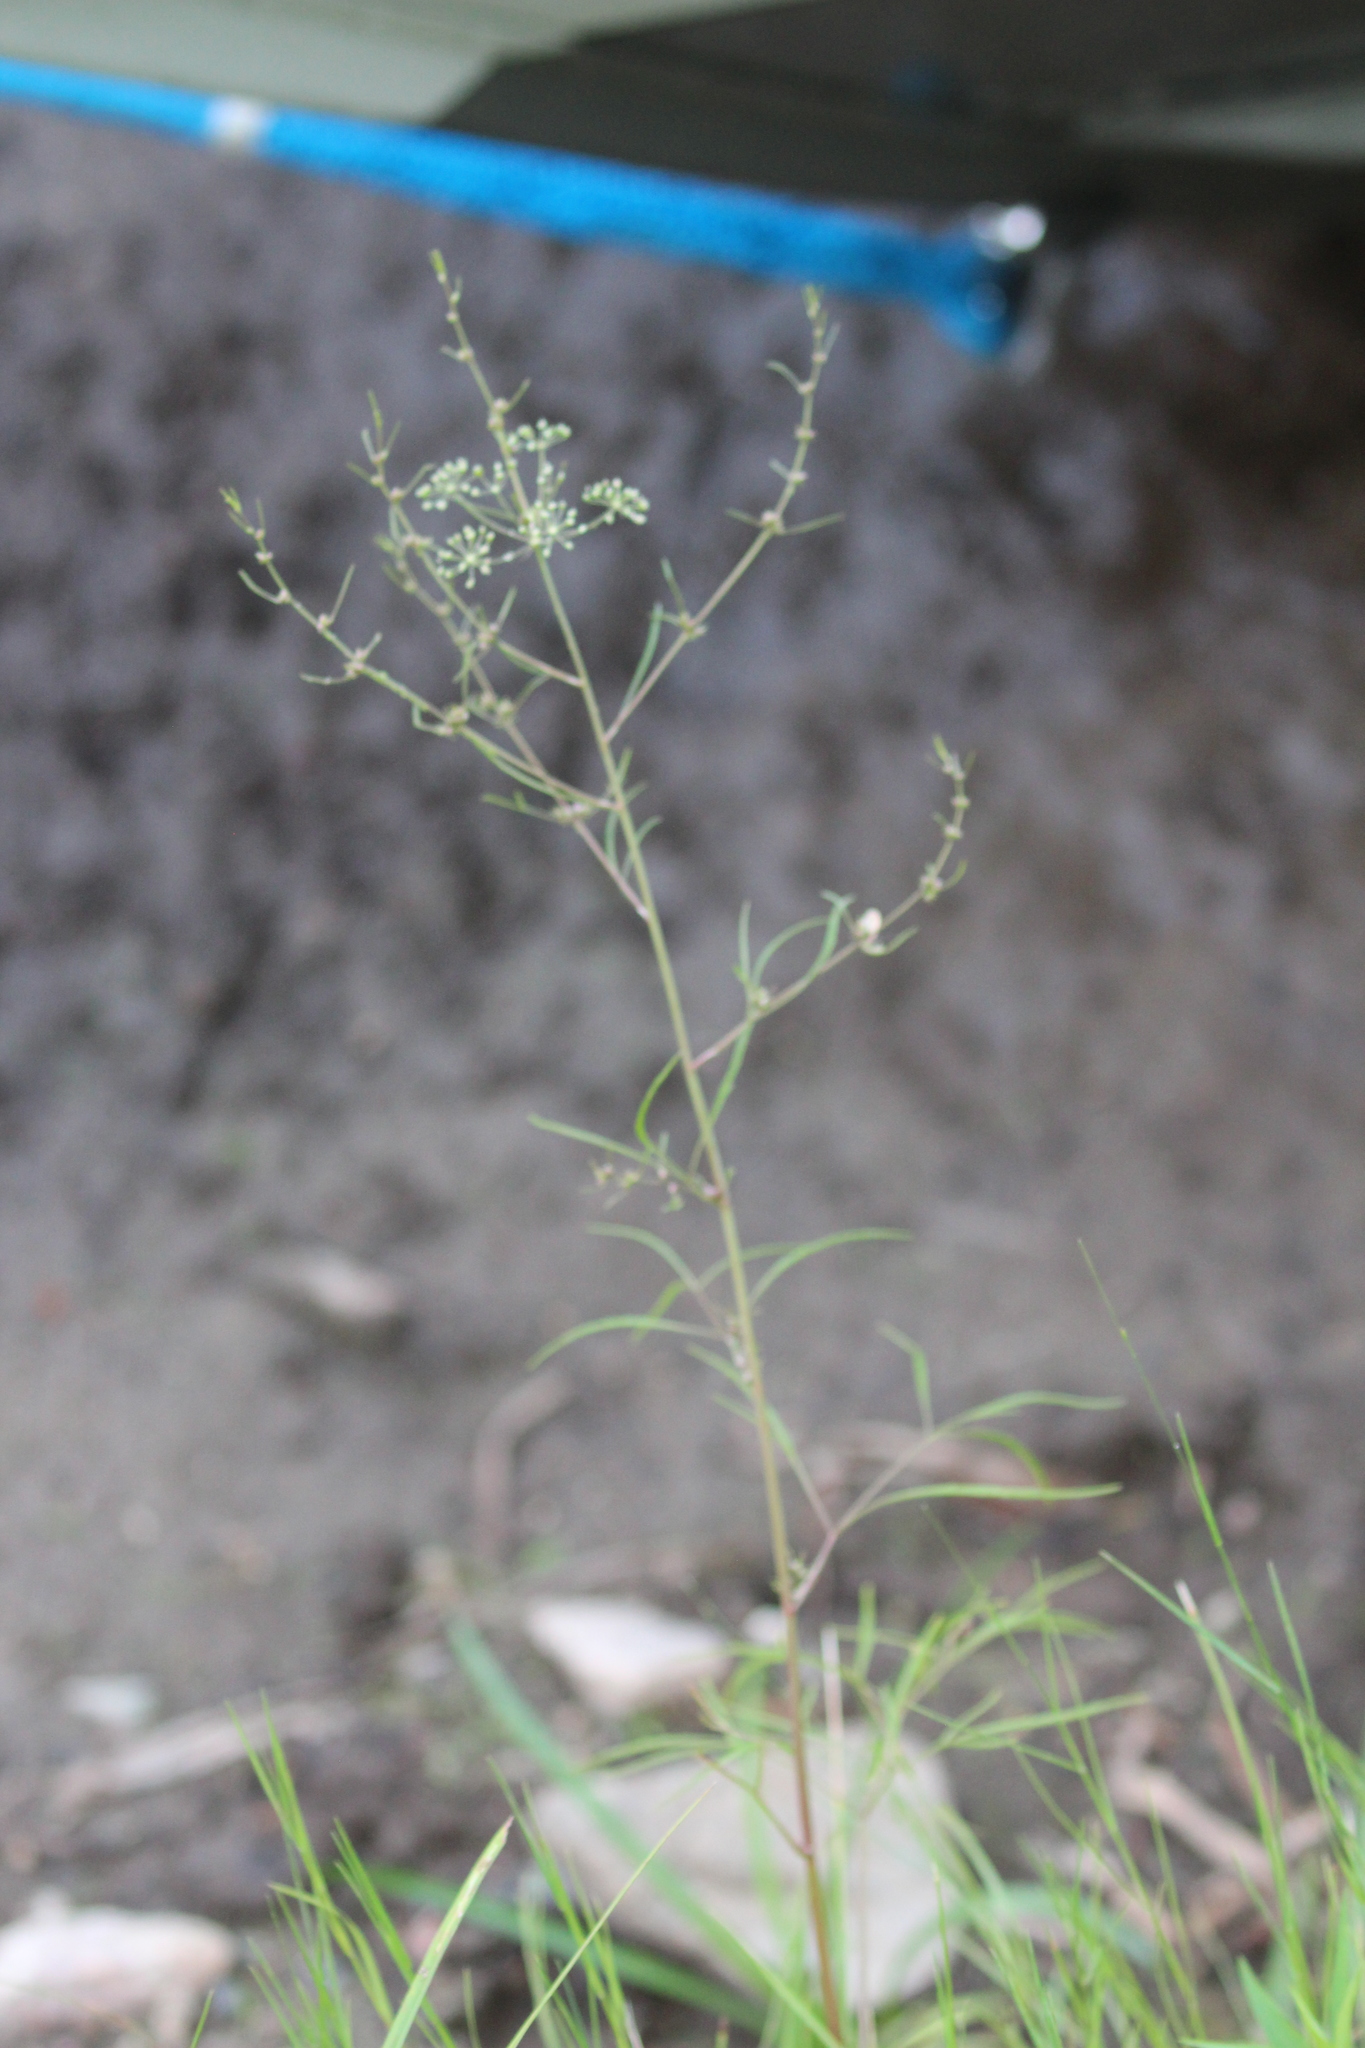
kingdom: Plantae
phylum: Tracheophyta
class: Magnoliopsida
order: Apiales
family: Apiaceae
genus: Cicuta
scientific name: Cicuta bulbifera
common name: Bulb-bearing water-hemlock
